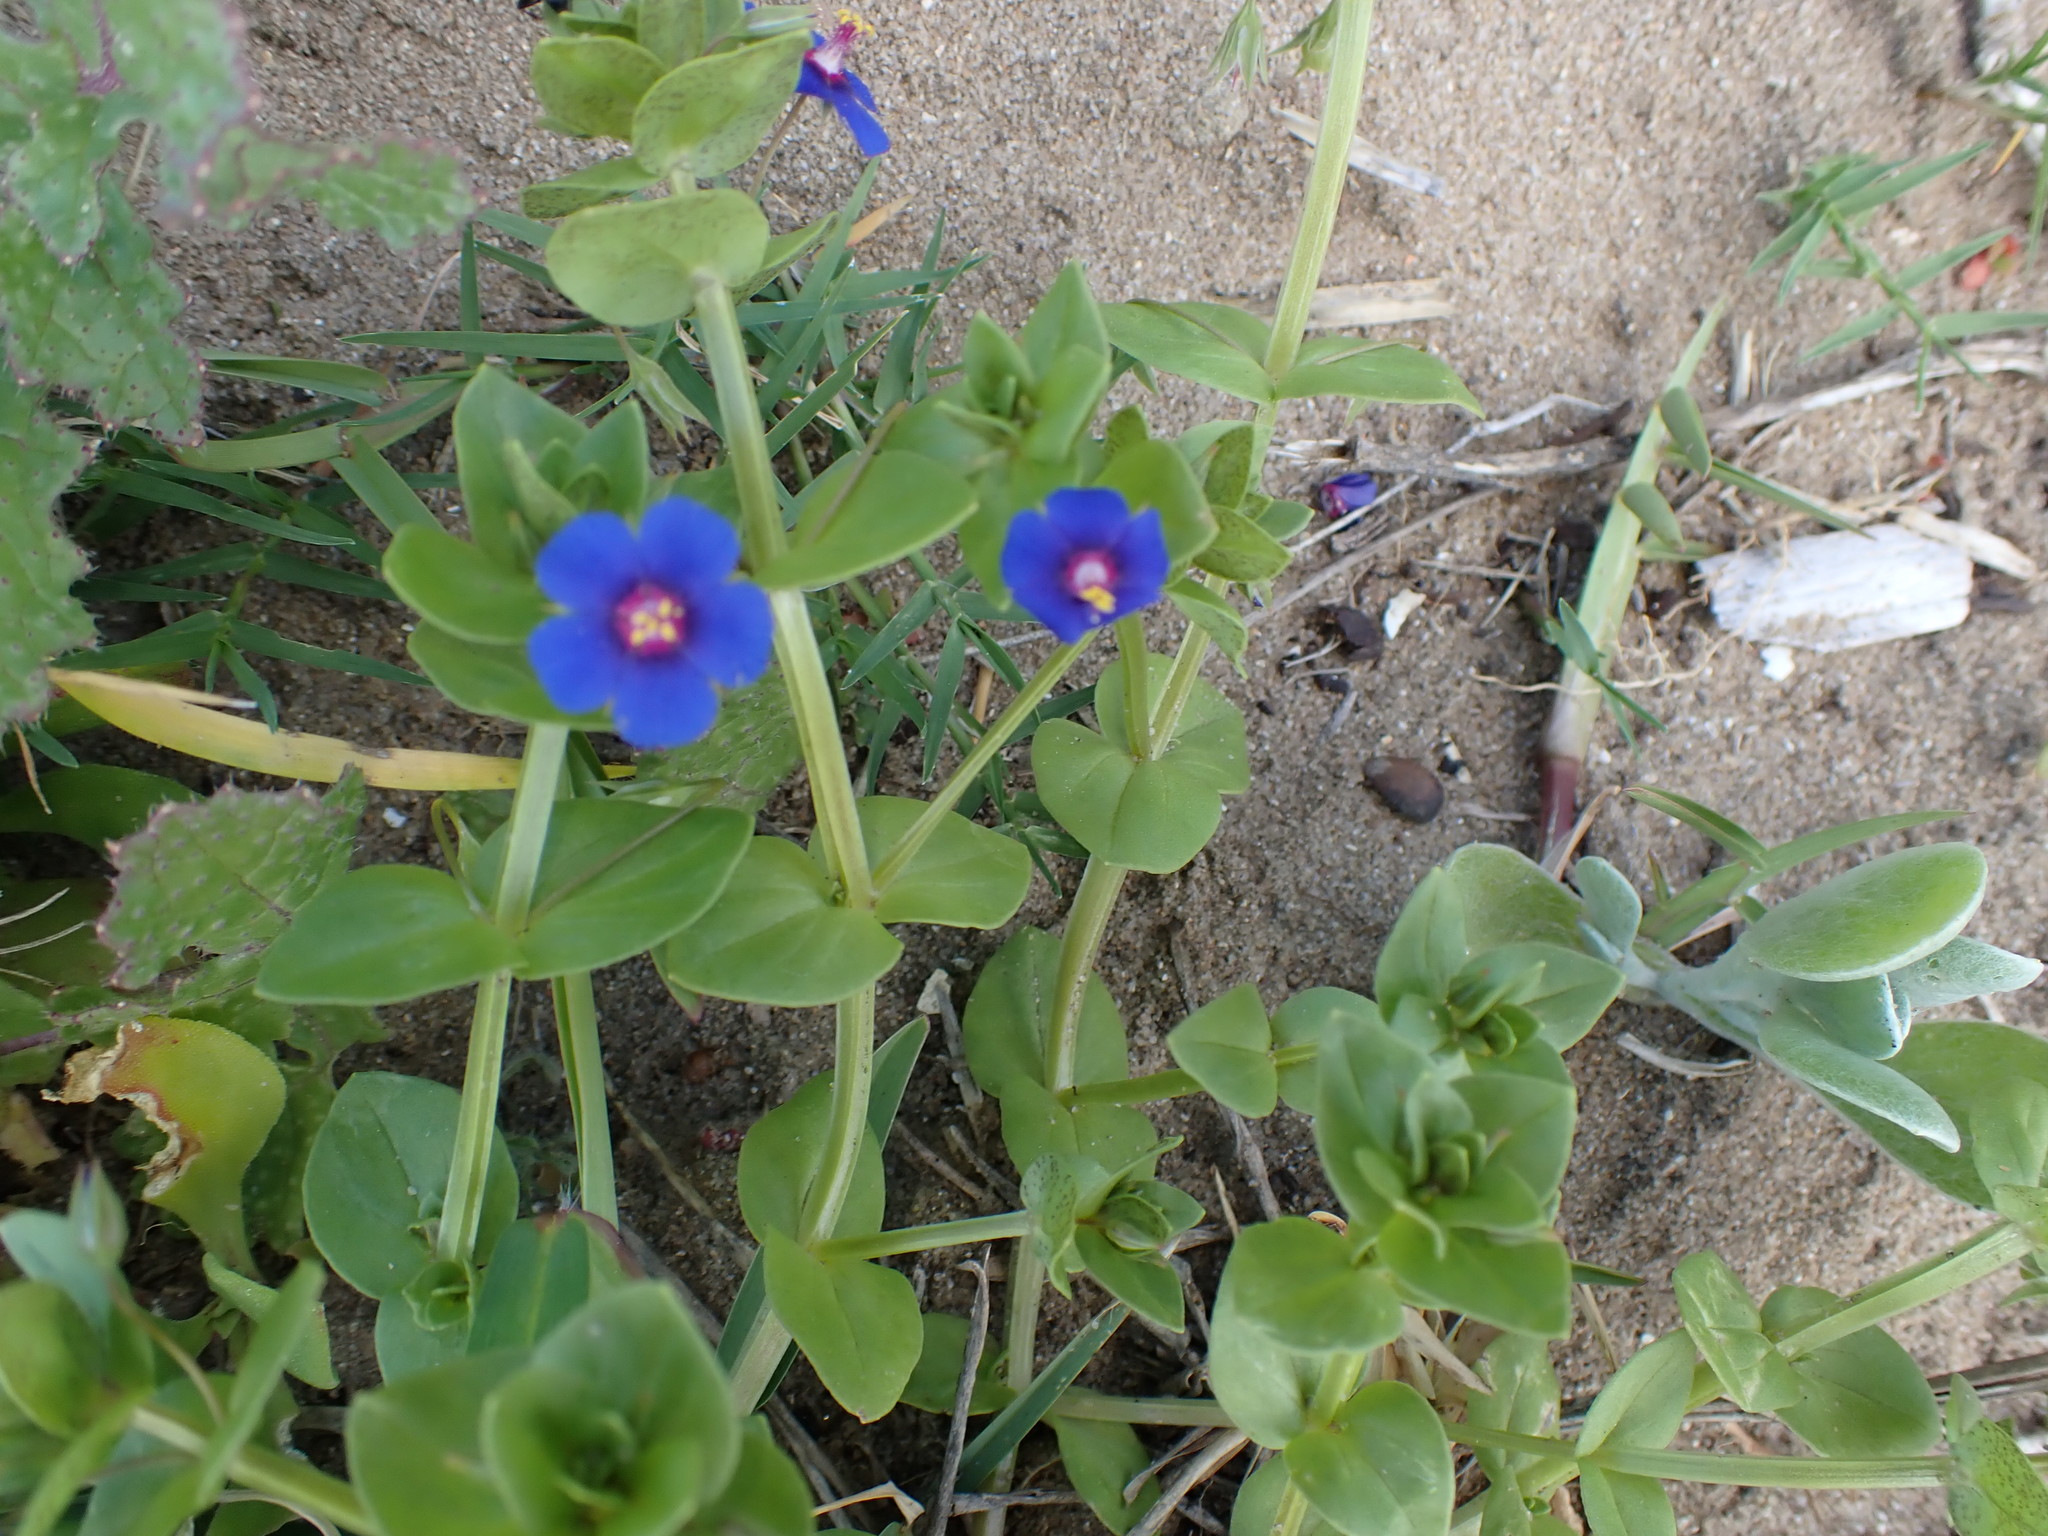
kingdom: Plantae
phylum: Tracheophyta
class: Magnoliopsida
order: Ericales
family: Primulaceae
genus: Lysimachia
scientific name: Lysimachia foemina
